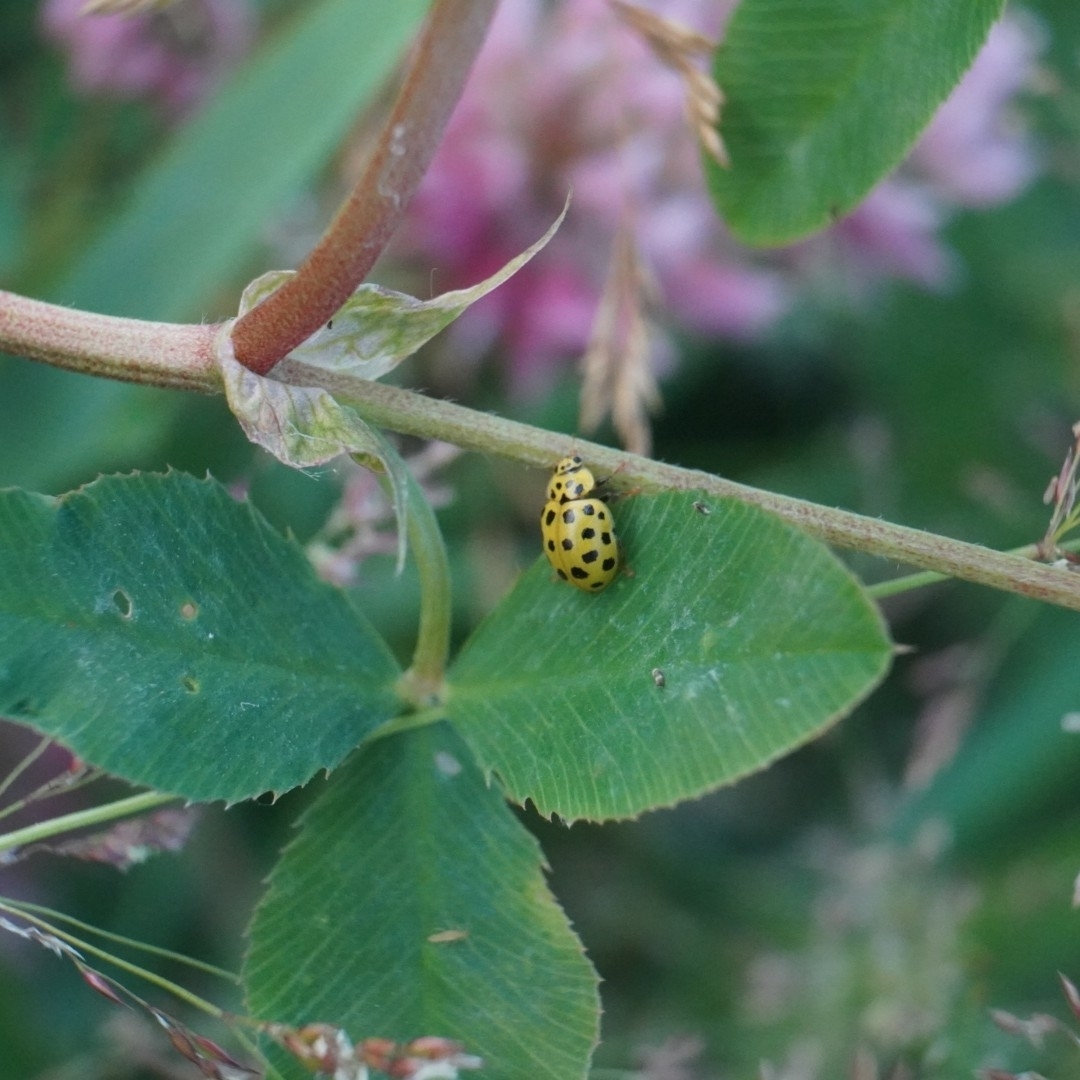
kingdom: Animalia
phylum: Arthropoda
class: Insecta
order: Coleoptera
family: Coccinellidae
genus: Psyllobora
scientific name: Psyllobora vigintiduopunctata
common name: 22-spot ladybird
